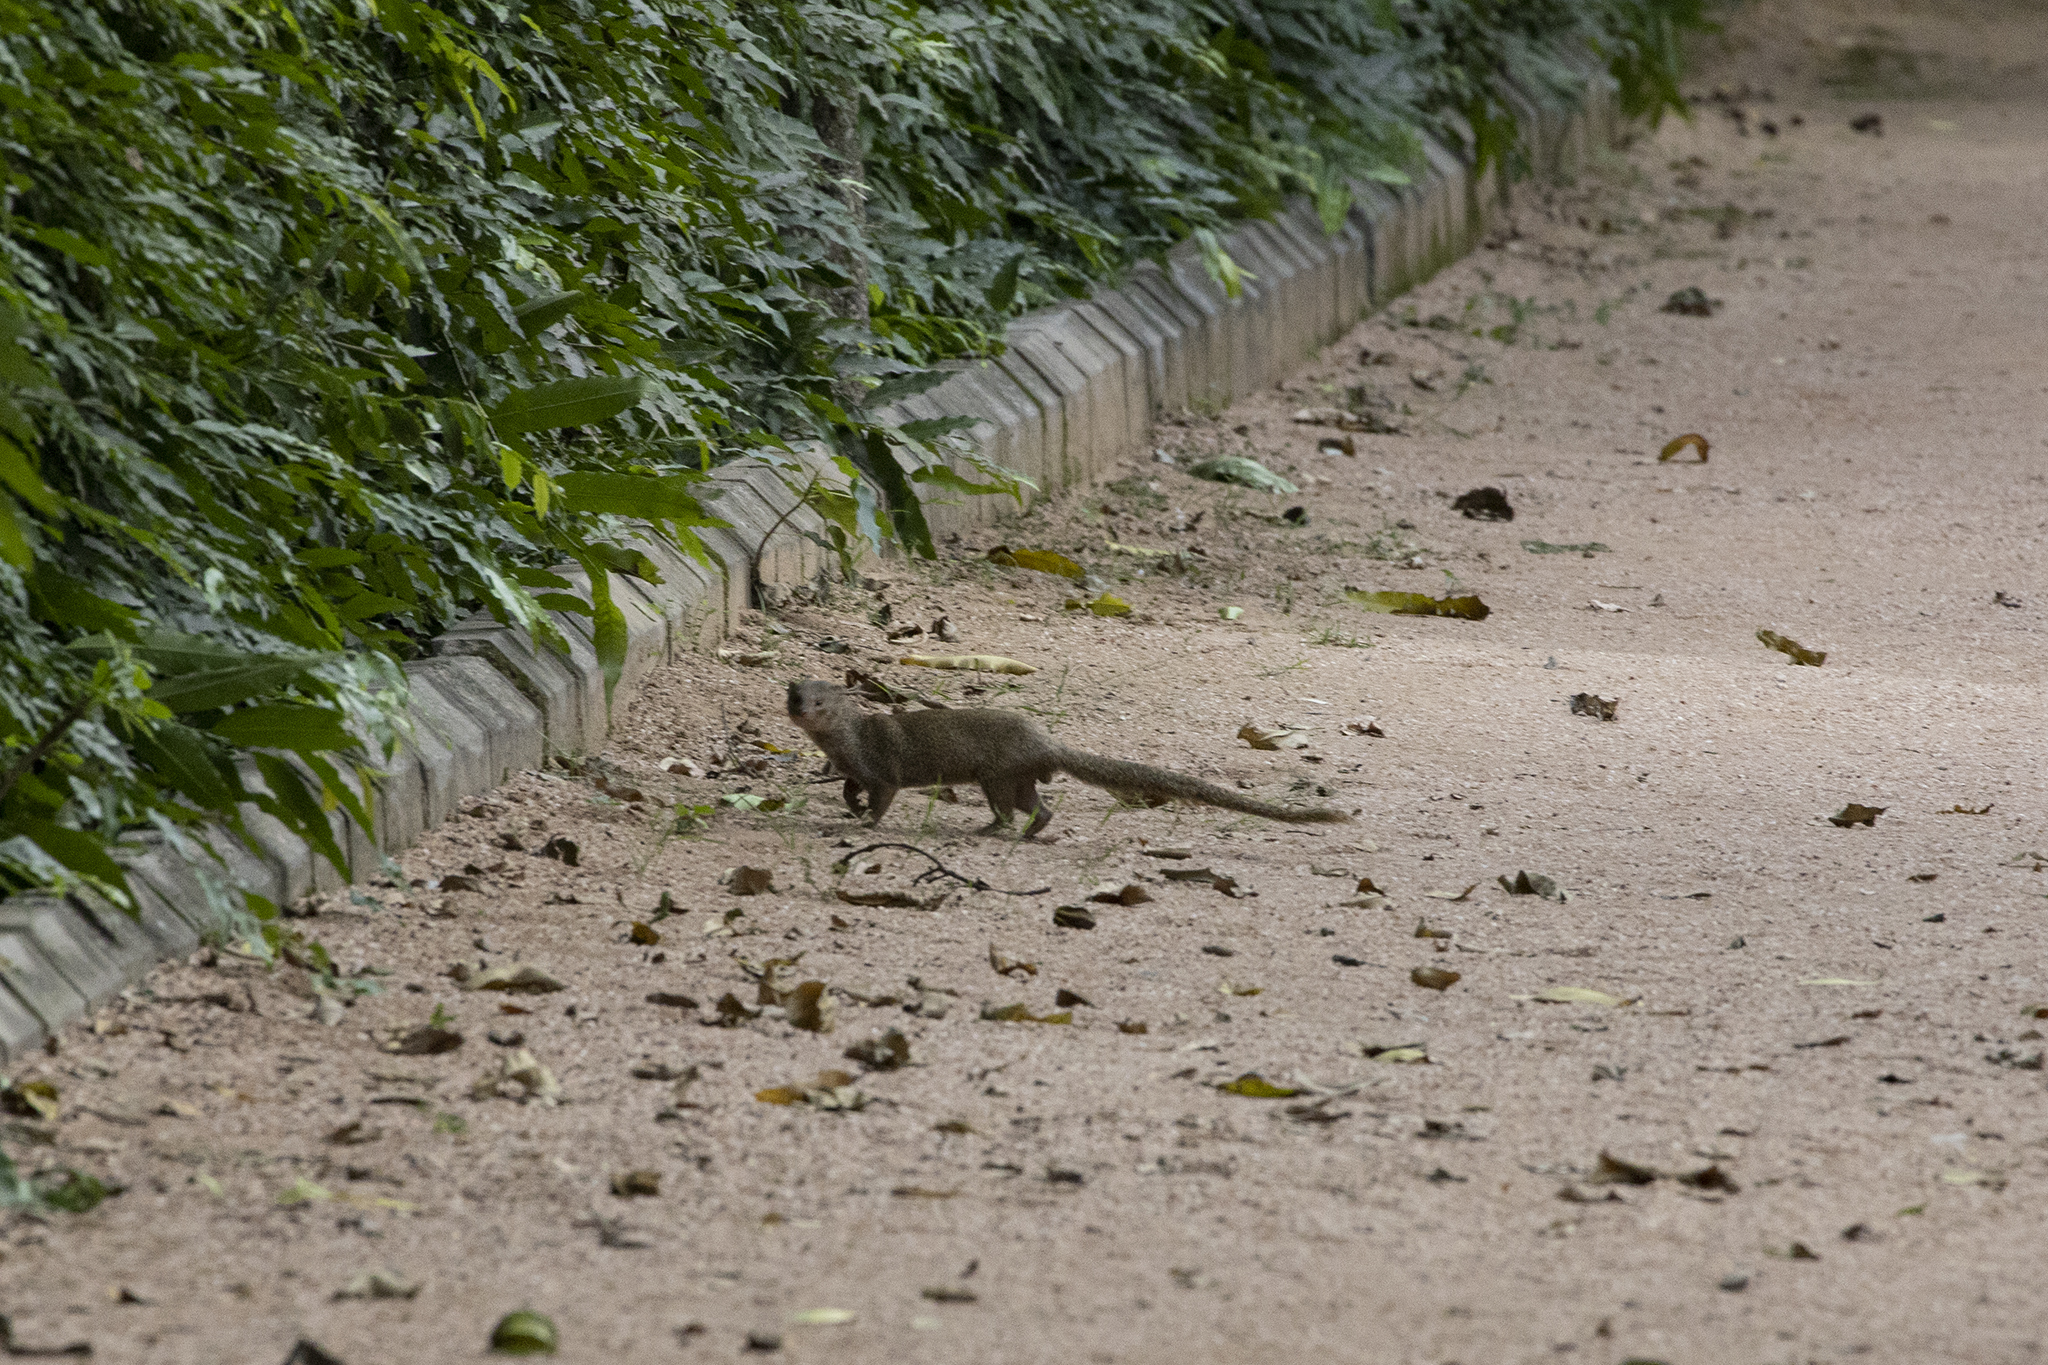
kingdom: Animalia
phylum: Chordata
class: Mammalia
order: Carnivora
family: Herpestidae
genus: Herpestes
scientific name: Herpestes javanicus
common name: Small asian mongoose
